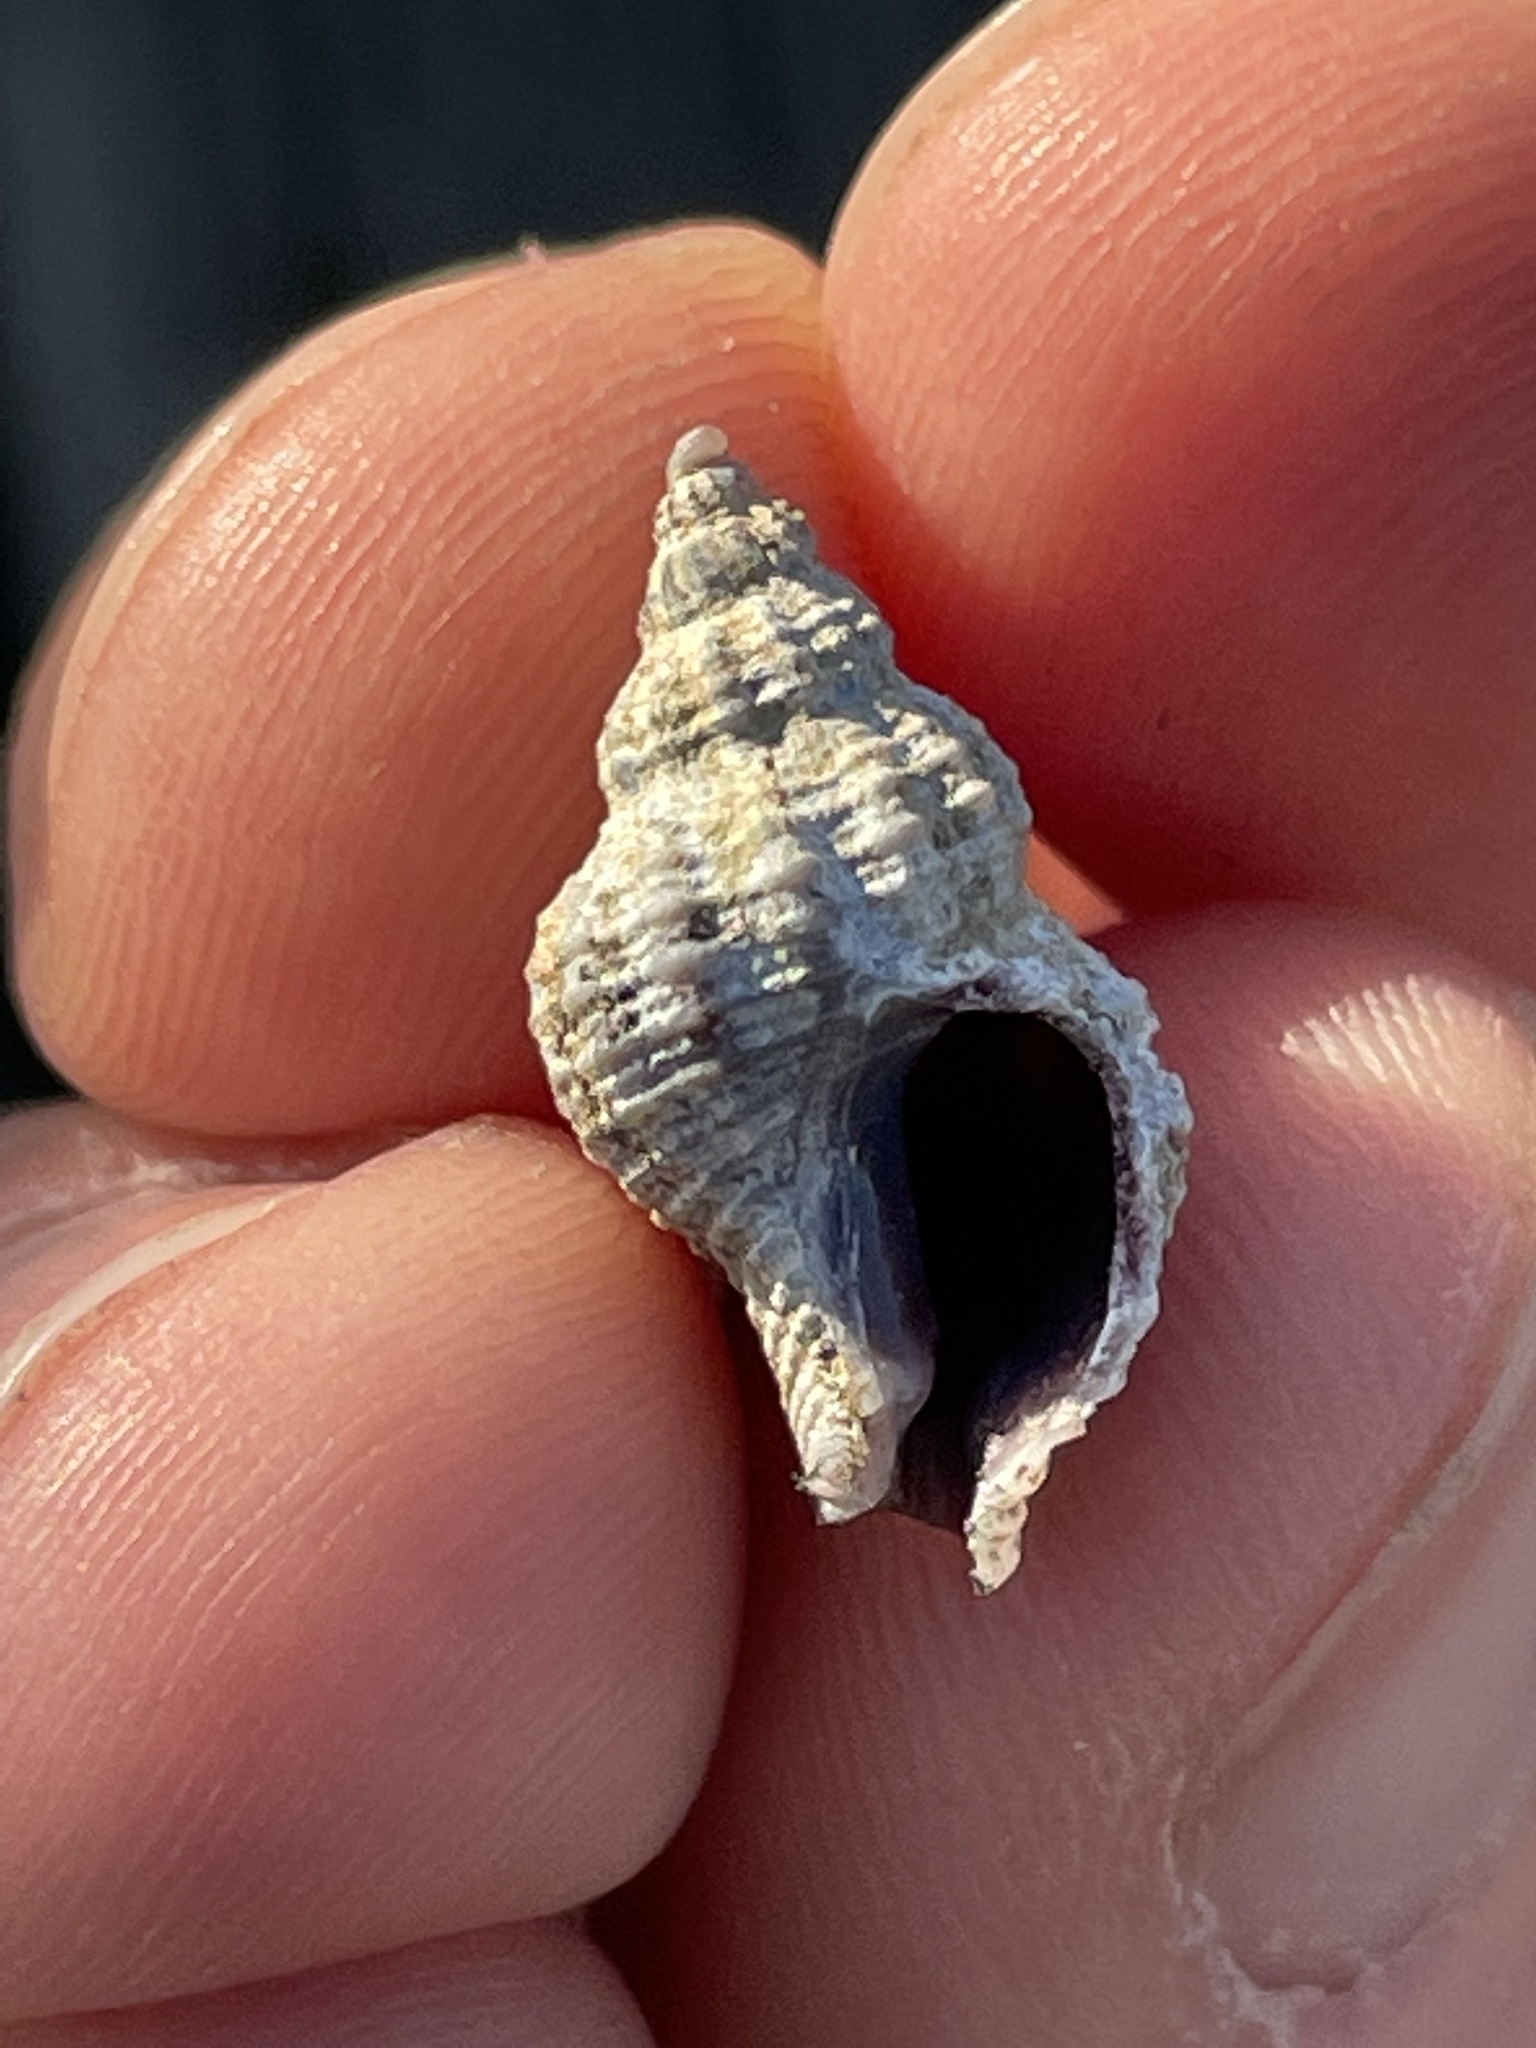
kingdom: Animalia
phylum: Mollusca
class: Gastropoda
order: Neogastropoda
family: Muricidae
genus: Urosalpinx
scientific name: Urosalpinx cinerea
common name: American sting winkle
